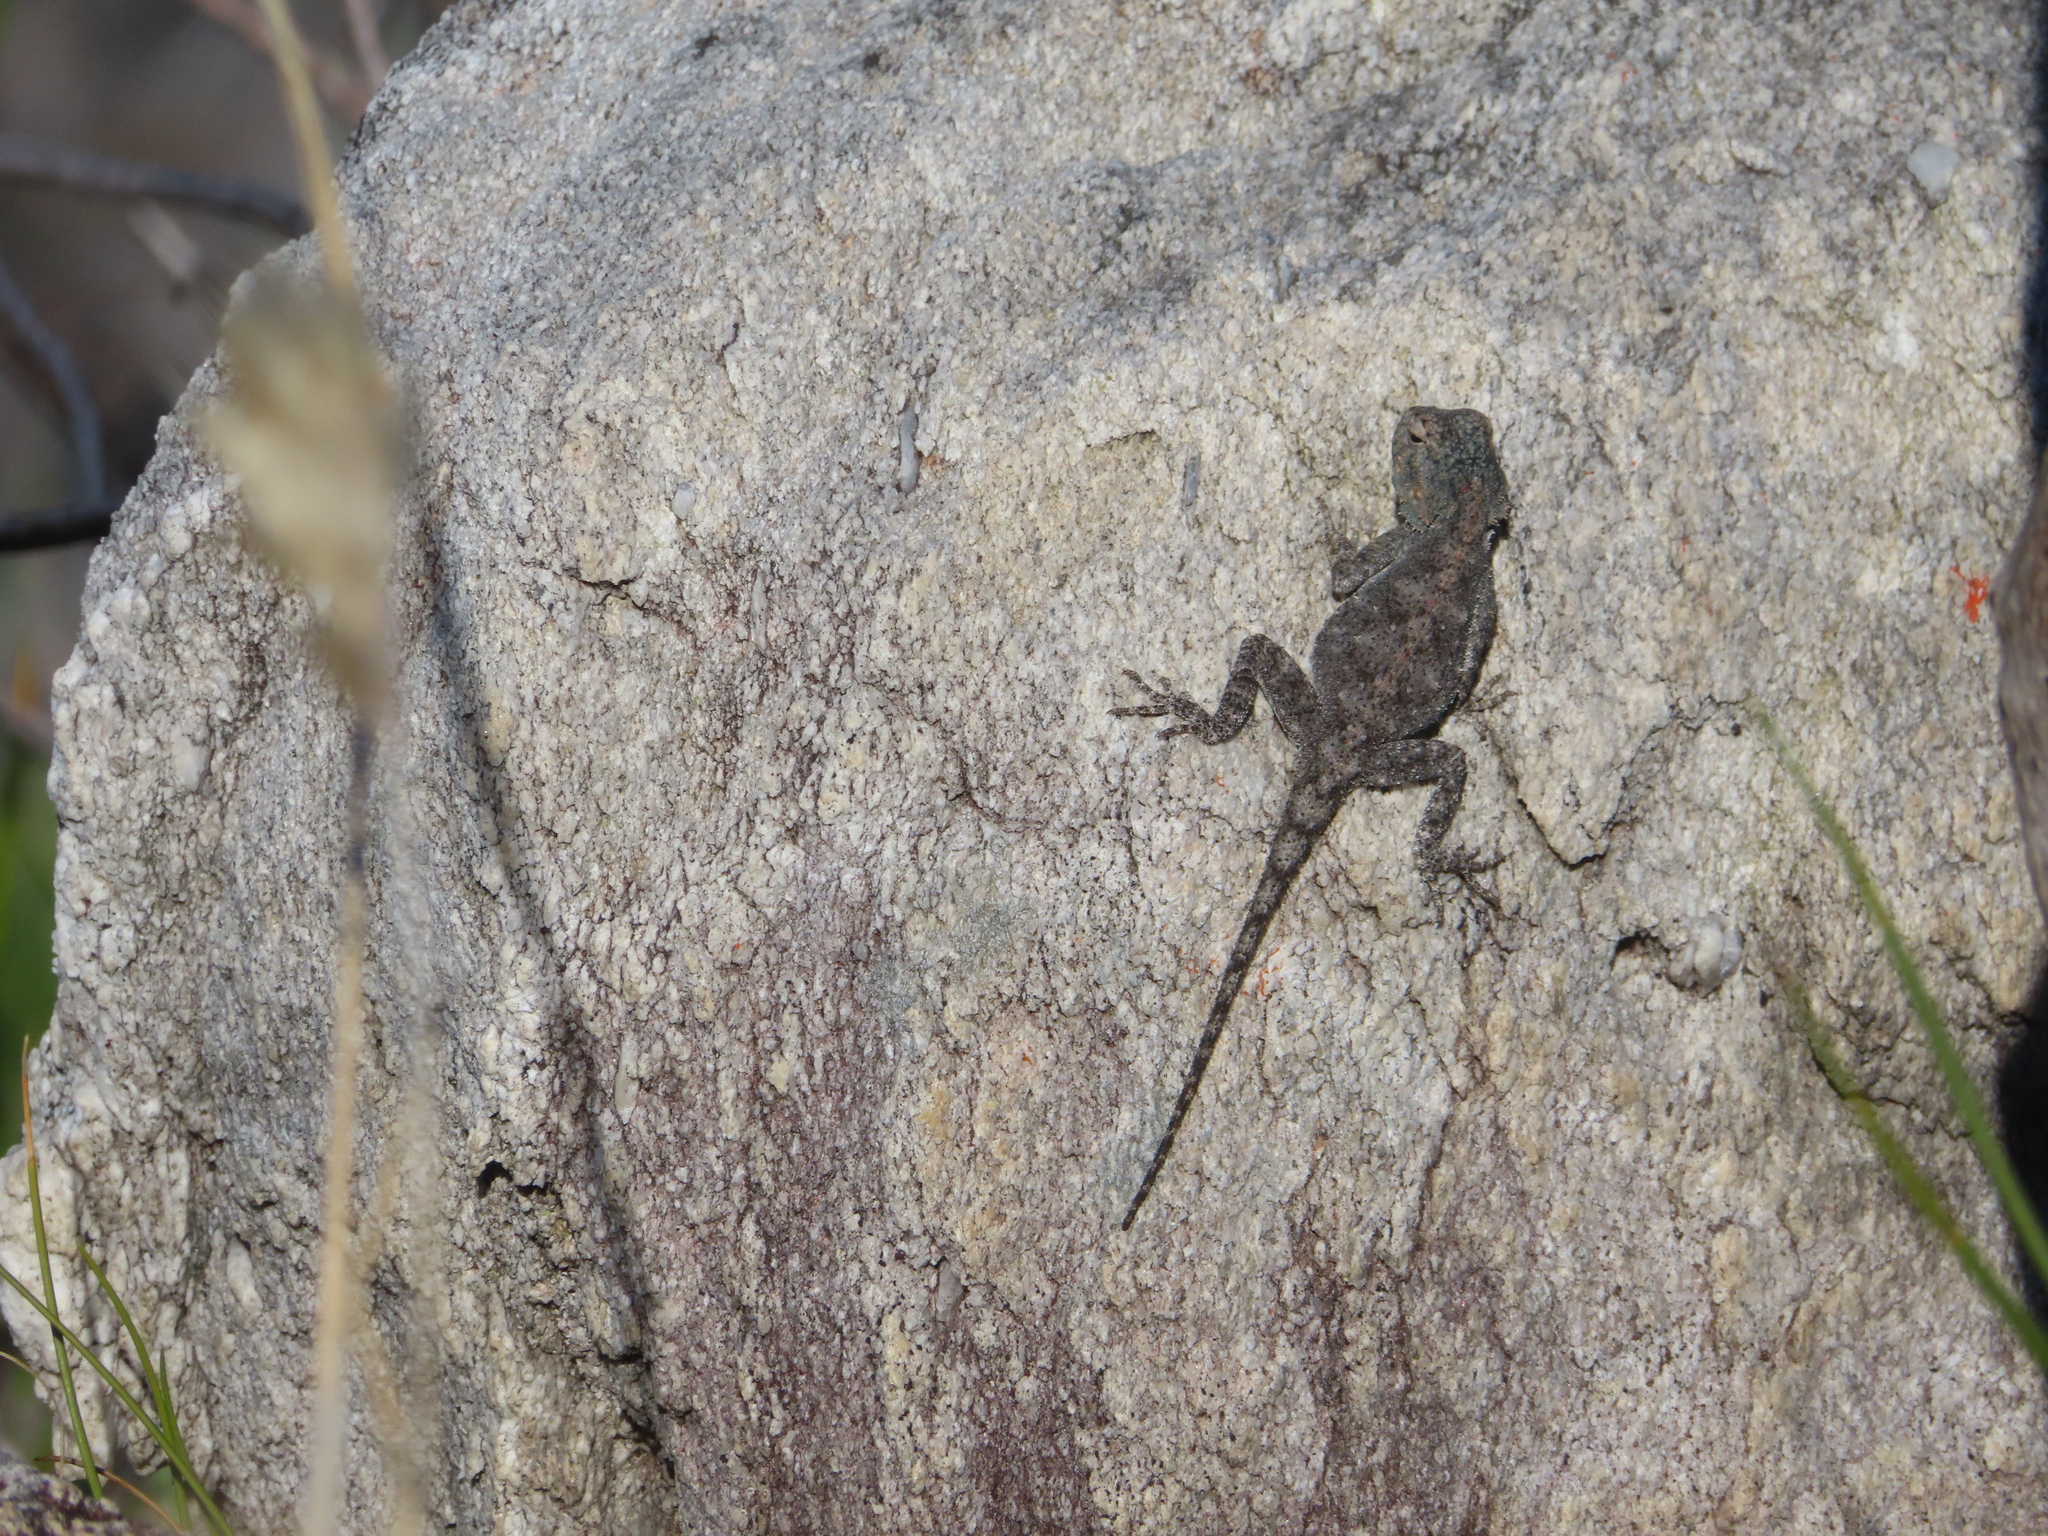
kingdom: Animalia
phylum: Chordata
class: Squamata
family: Agamidae
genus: Agama
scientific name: Agama atra
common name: Southern african rock agama
